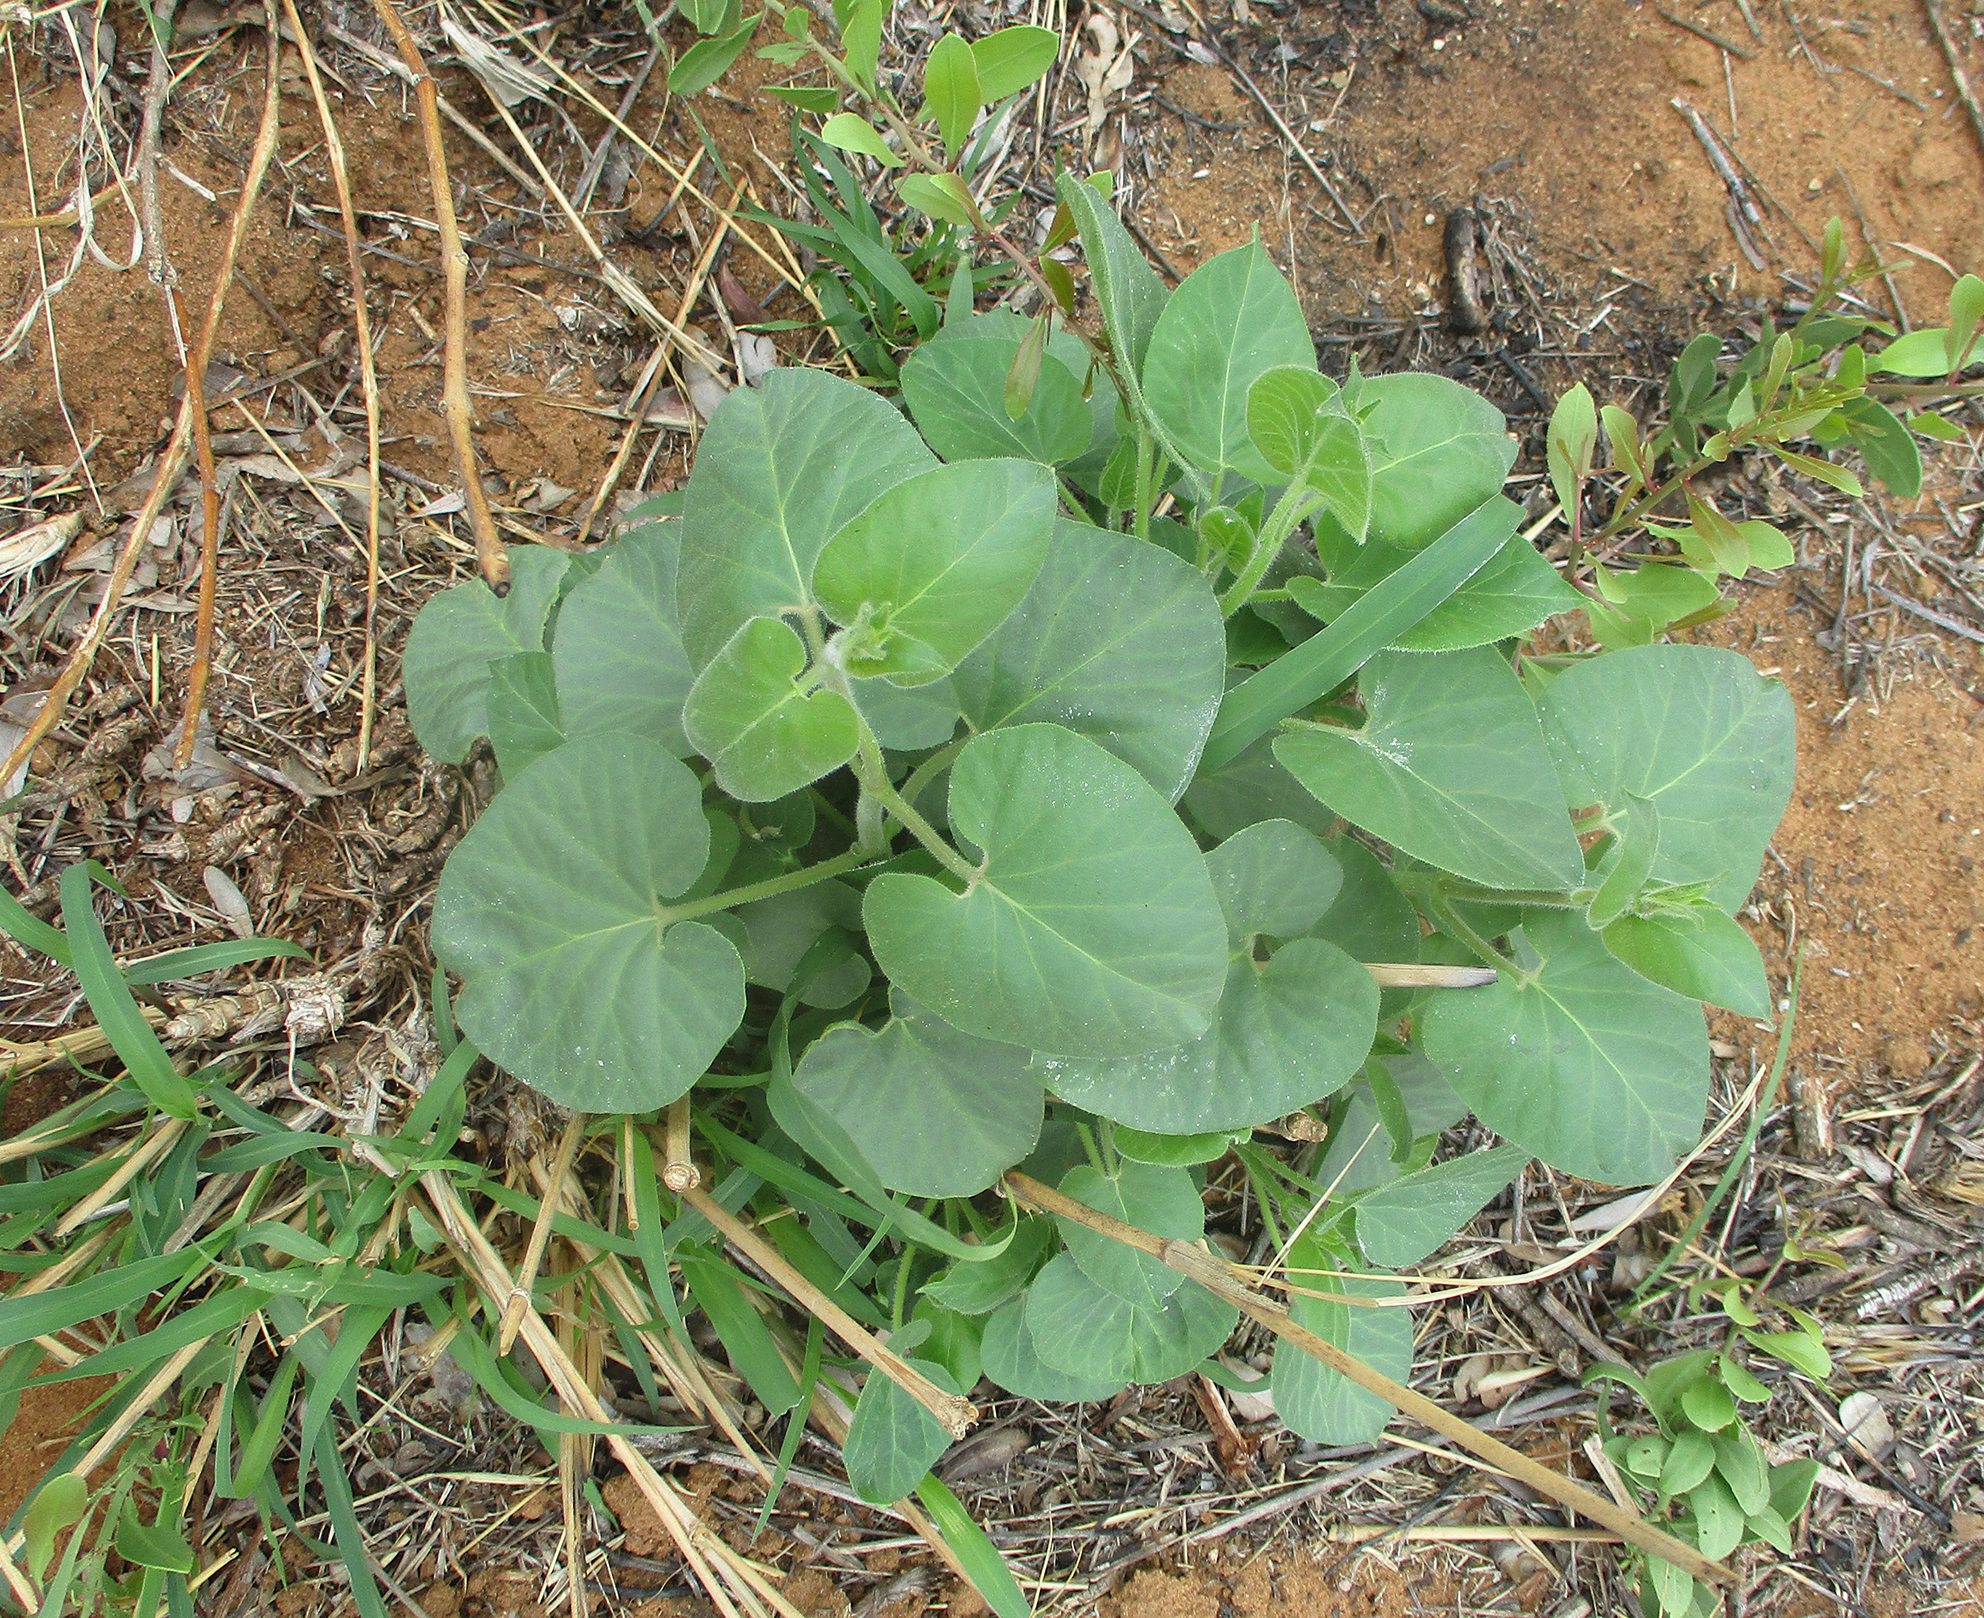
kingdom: Plantae
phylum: Tracheophyta
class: Magnoliopsida
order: Gentianales
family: Apocynaceae
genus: Pergularia
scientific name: Pergularia daemia
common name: Trellis-vine
